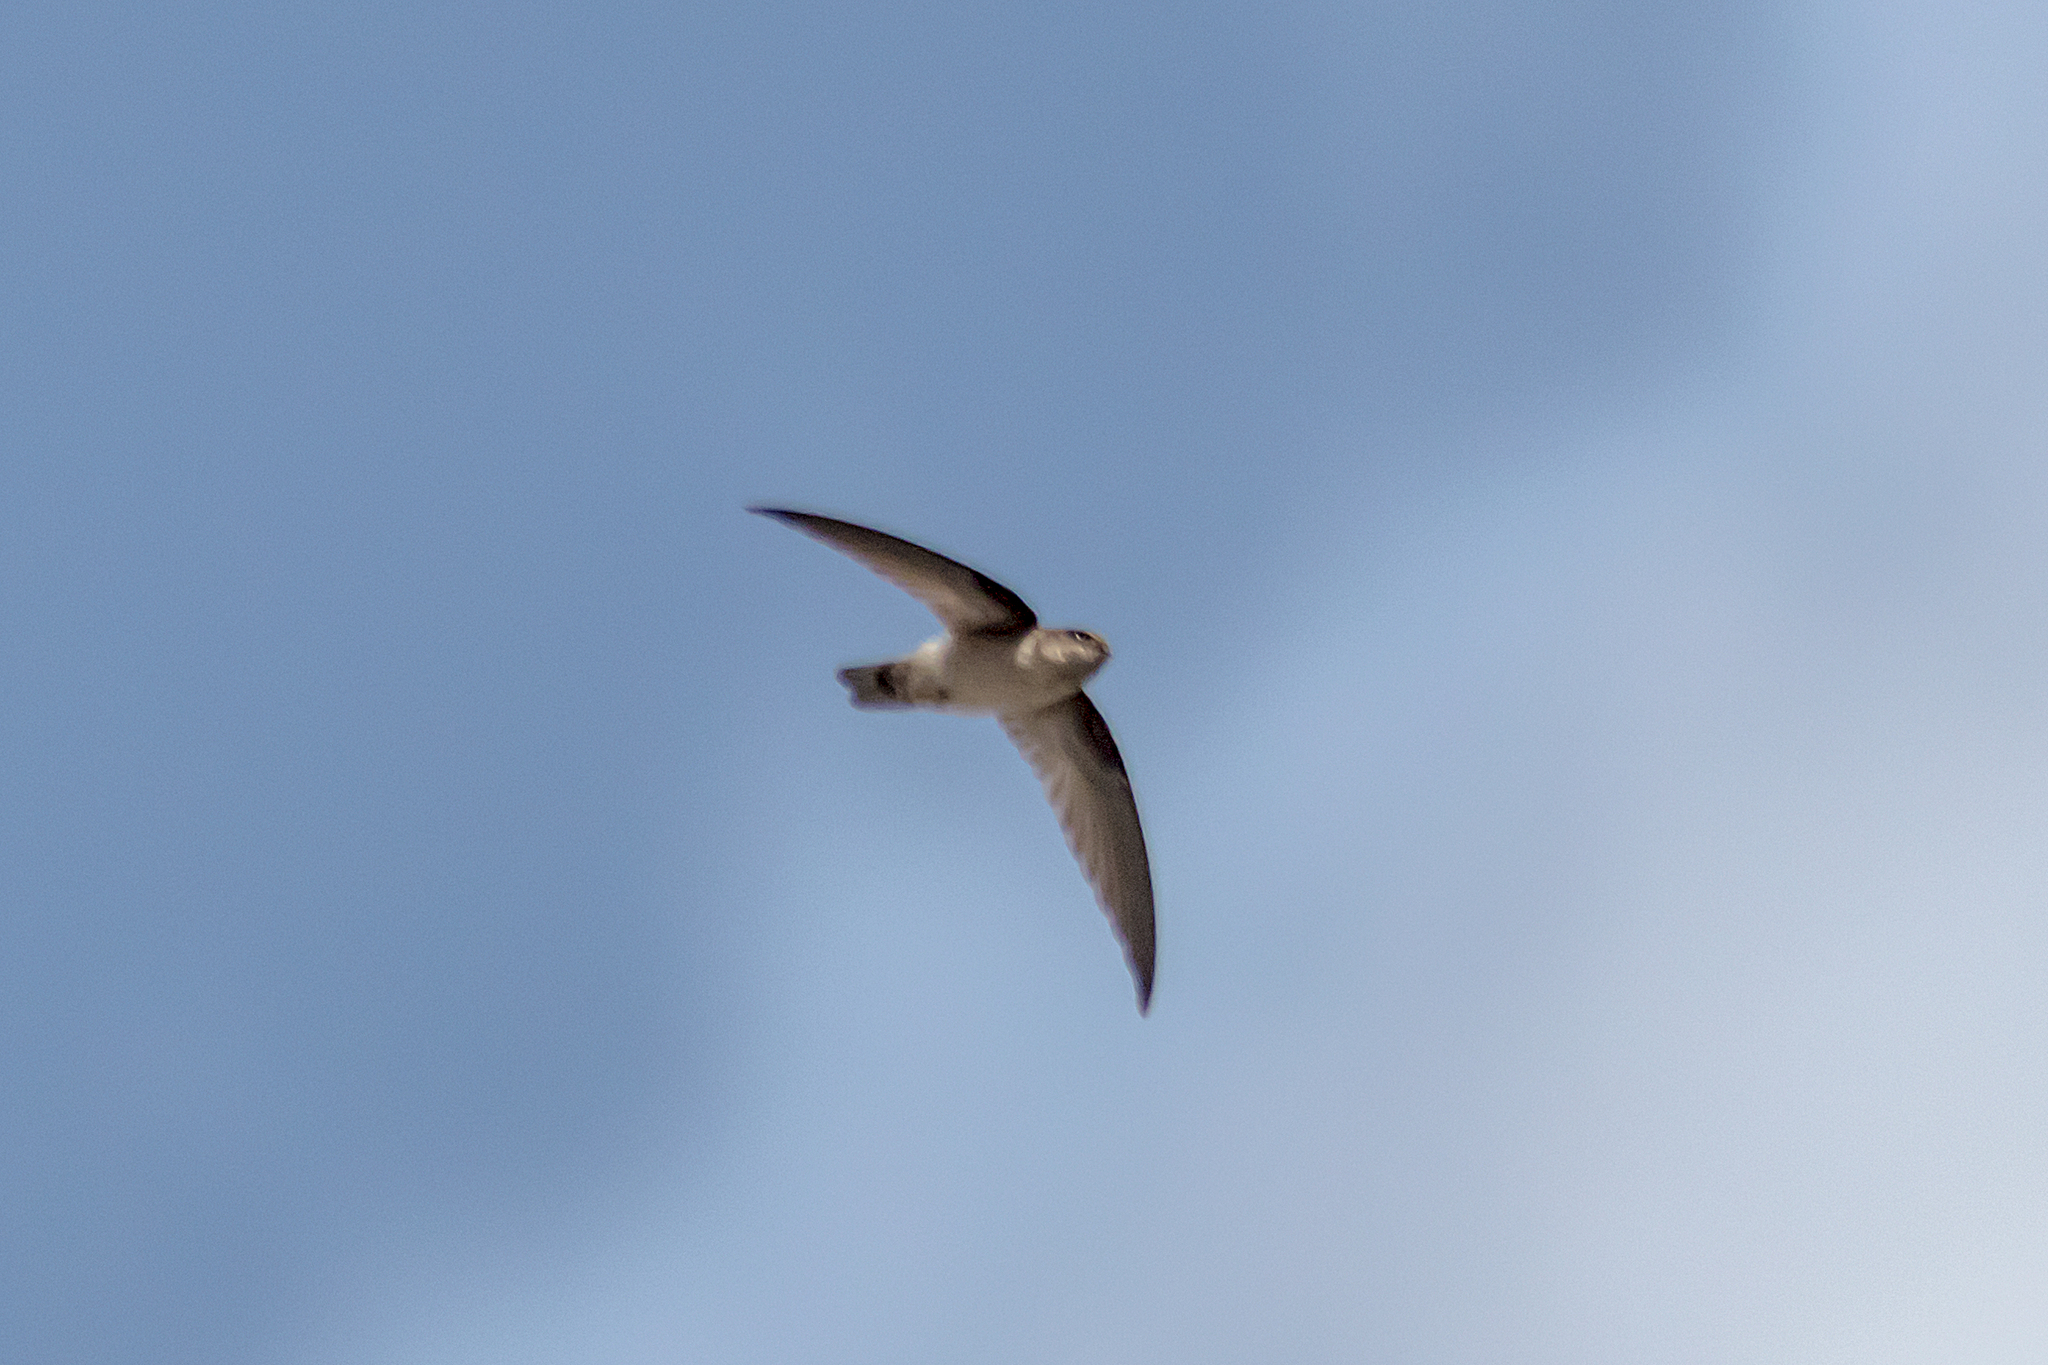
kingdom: Animalia
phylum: Chordata
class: Aves
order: Apodiformes
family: Apodidae
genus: Aerodramus
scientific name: Aerodramus terraereginae
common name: Australian swiftlet
